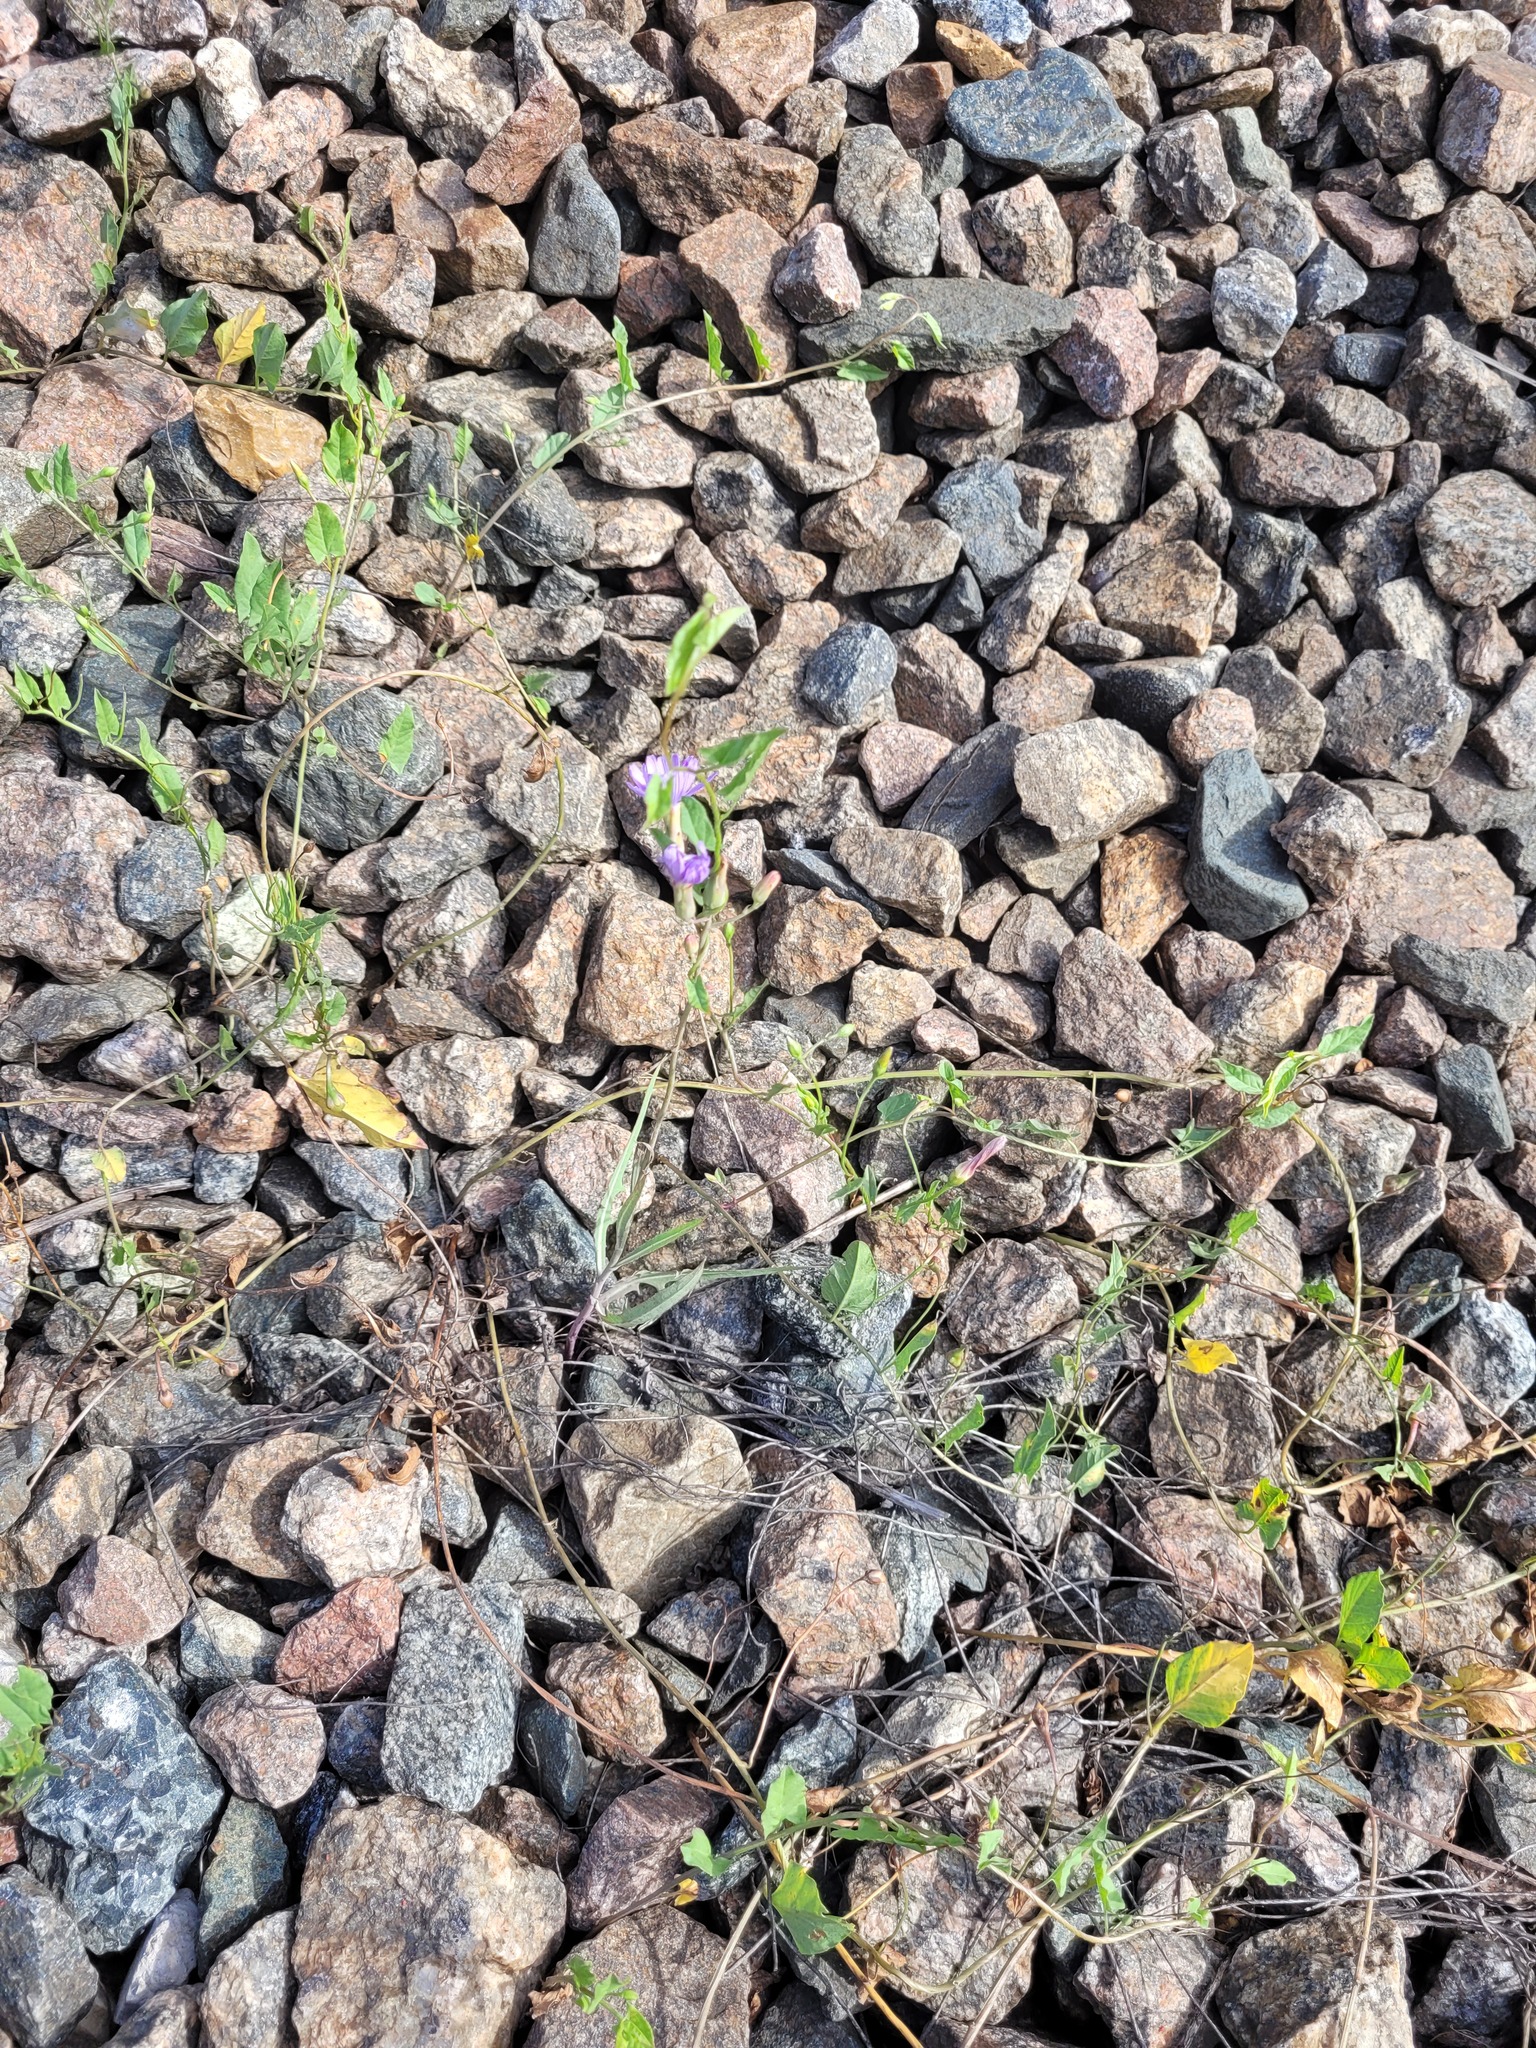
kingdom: Plantae
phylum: Tracheophyta
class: Magnoliopsida
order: Asterales
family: Asteraceae
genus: Lactuca
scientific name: Lactuca tatarica
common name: Blue lettuce
